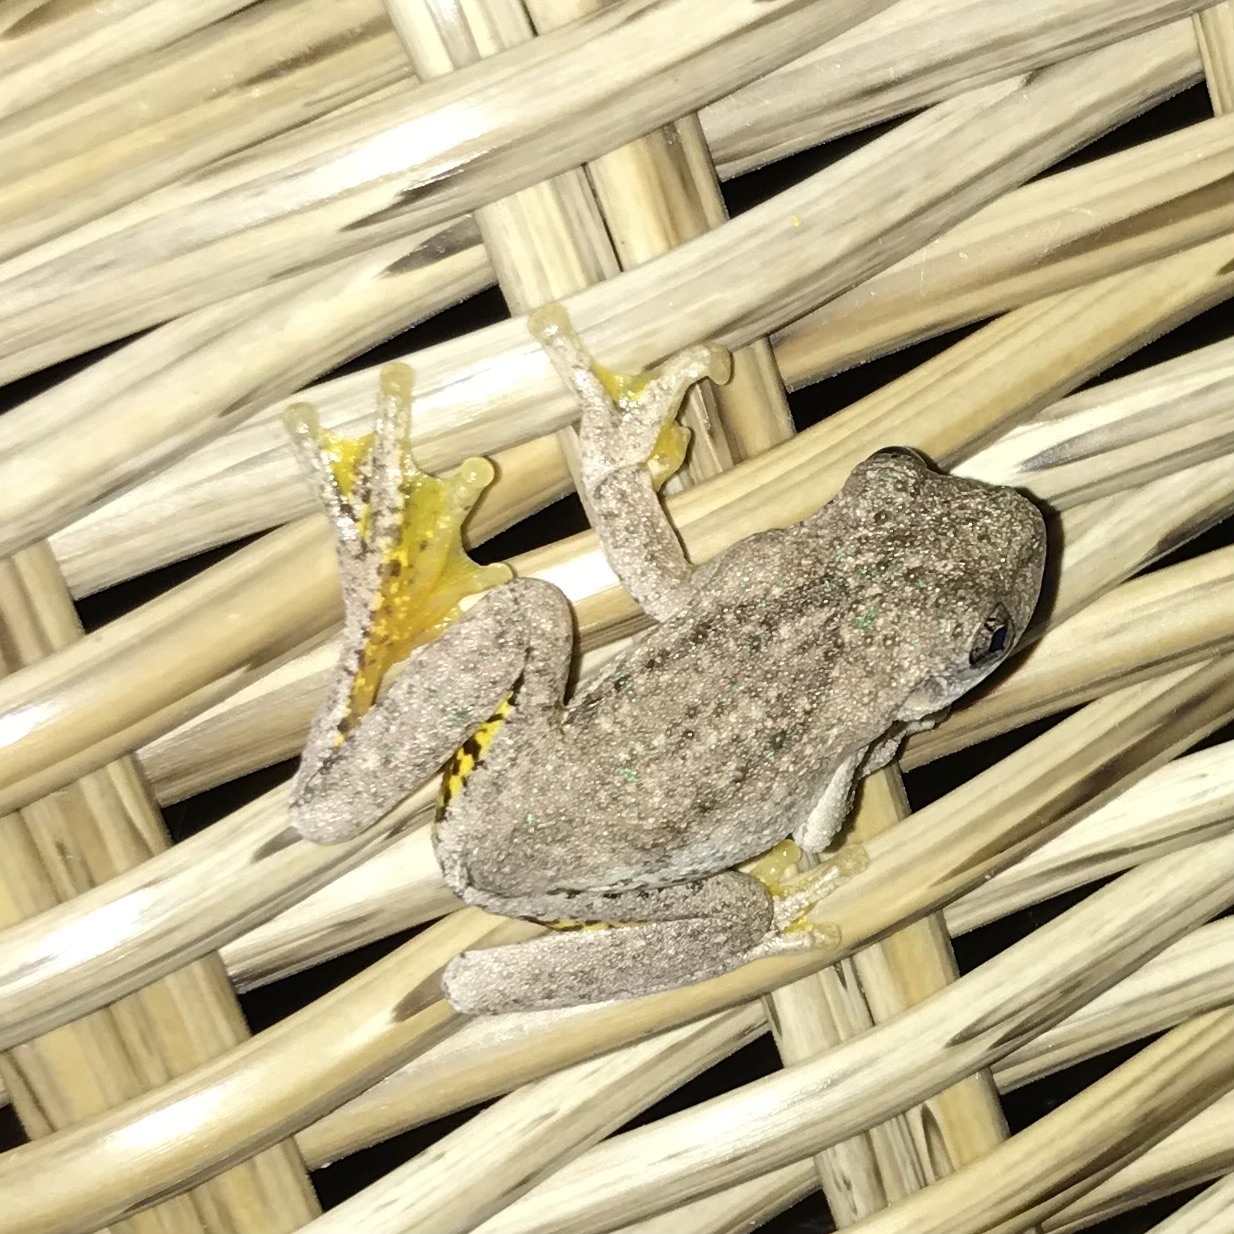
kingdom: Animalia
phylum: Chordata
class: Amphibia
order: Anura
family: Pelodryadidae
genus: Litoria
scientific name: Litoria peronii
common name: Emerald spotted treefrog
